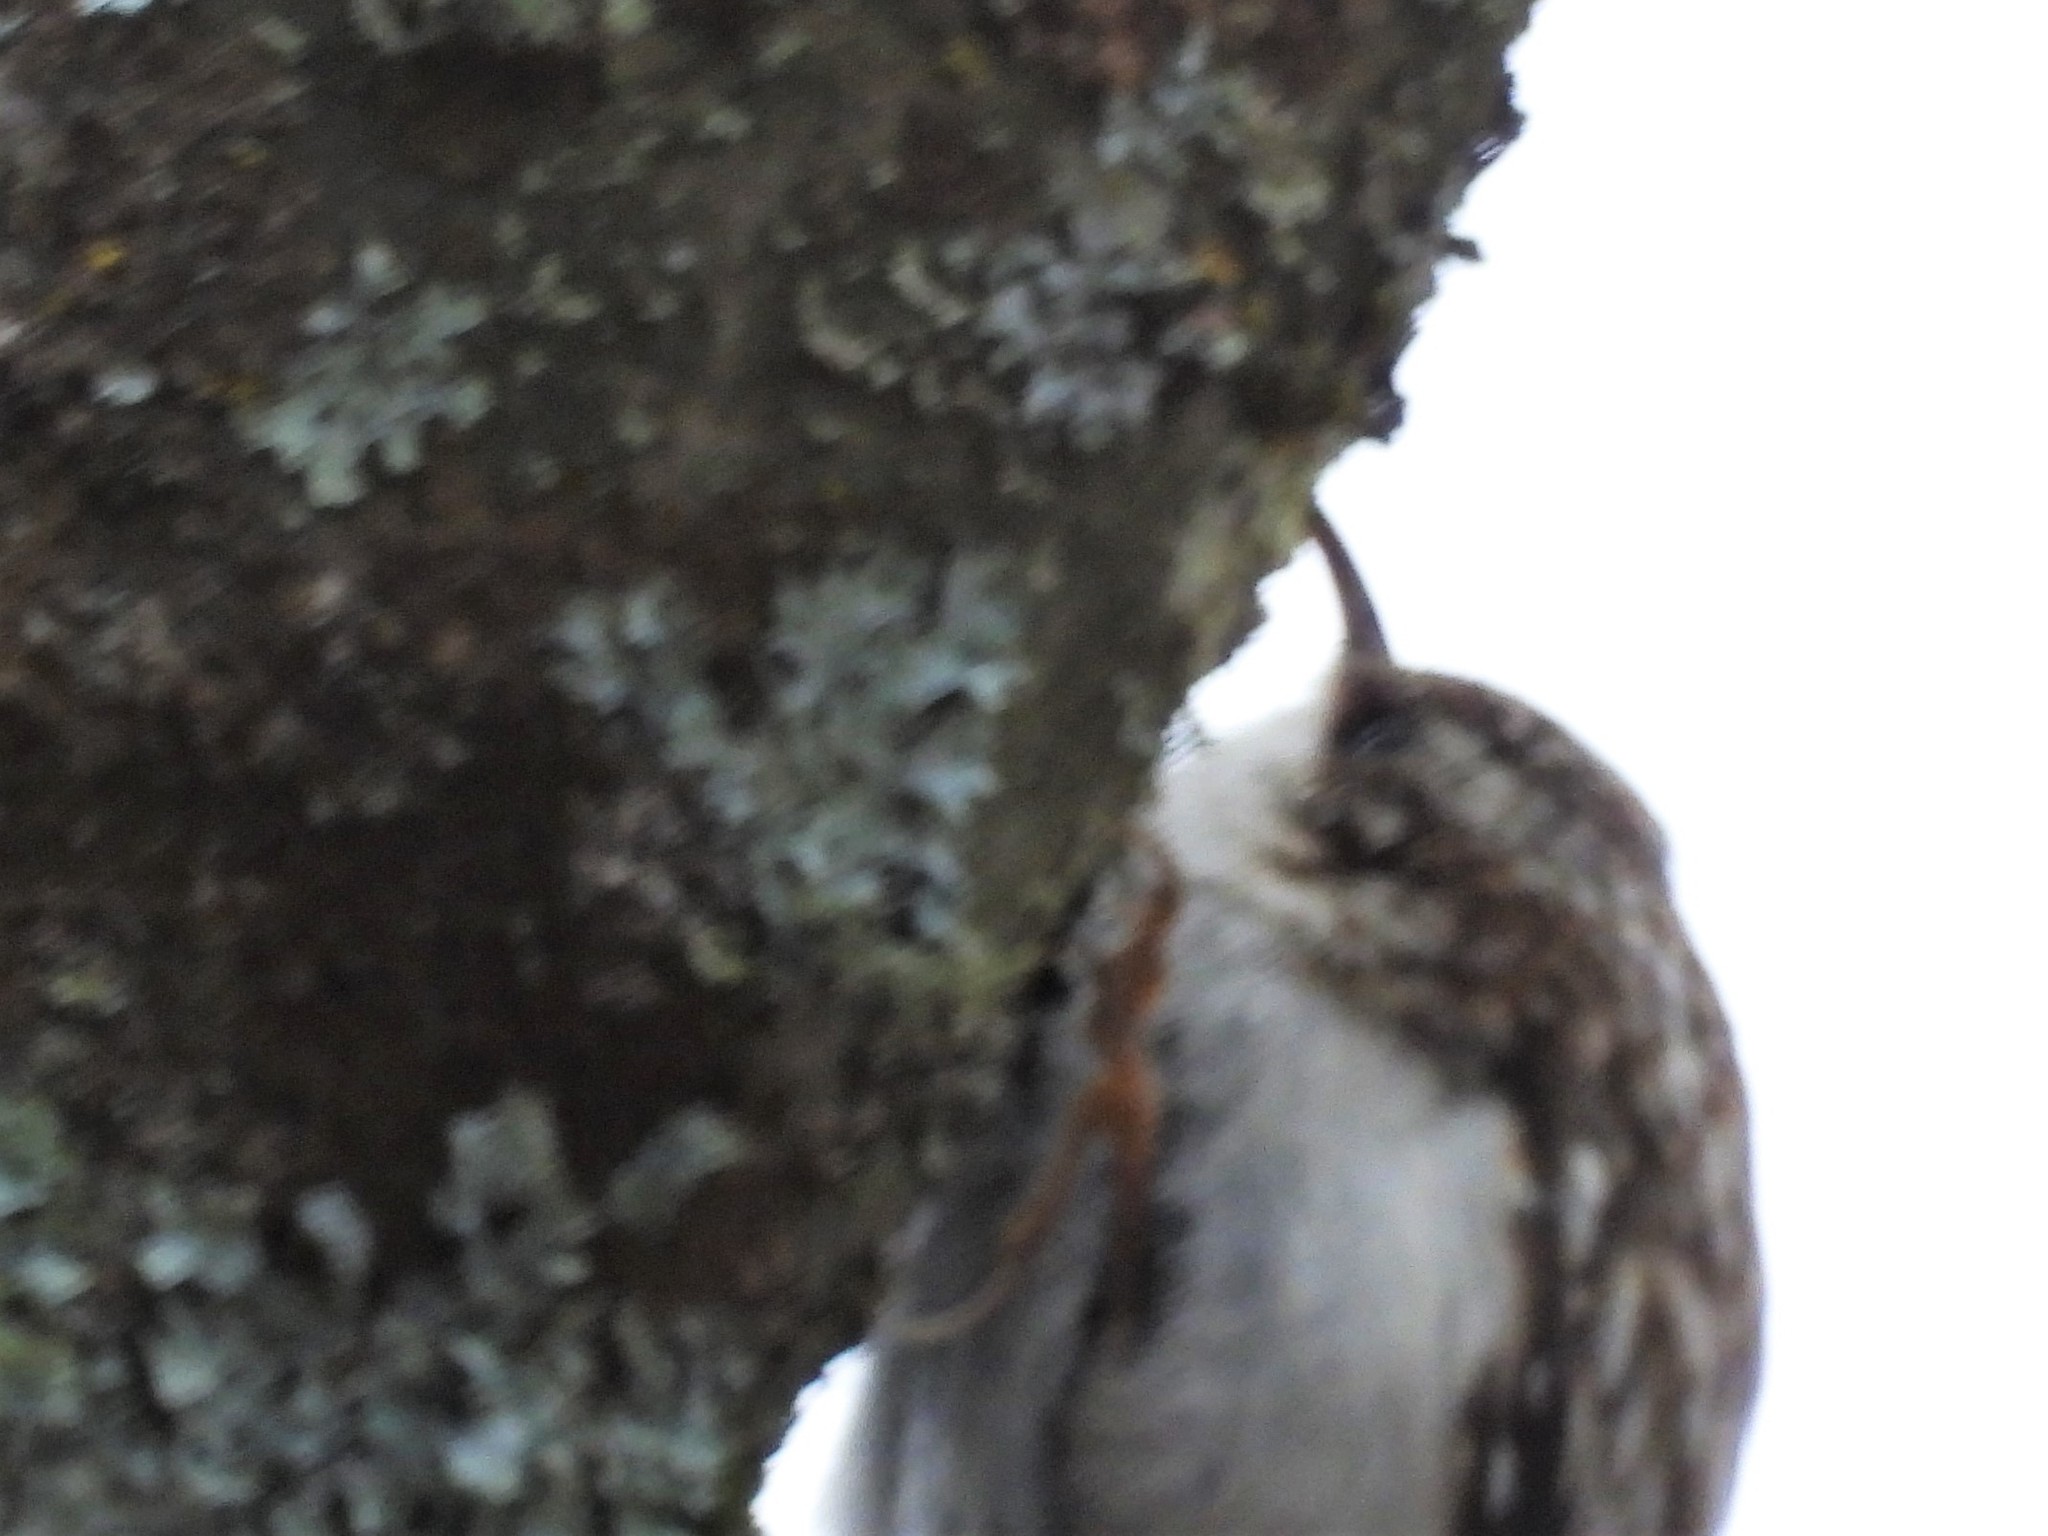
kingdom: Animalia
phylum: Chordata
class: Aves
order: Passeriformes
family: Certhiidae
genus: Certhia
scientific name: Certhia americana
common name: Brown creeper
